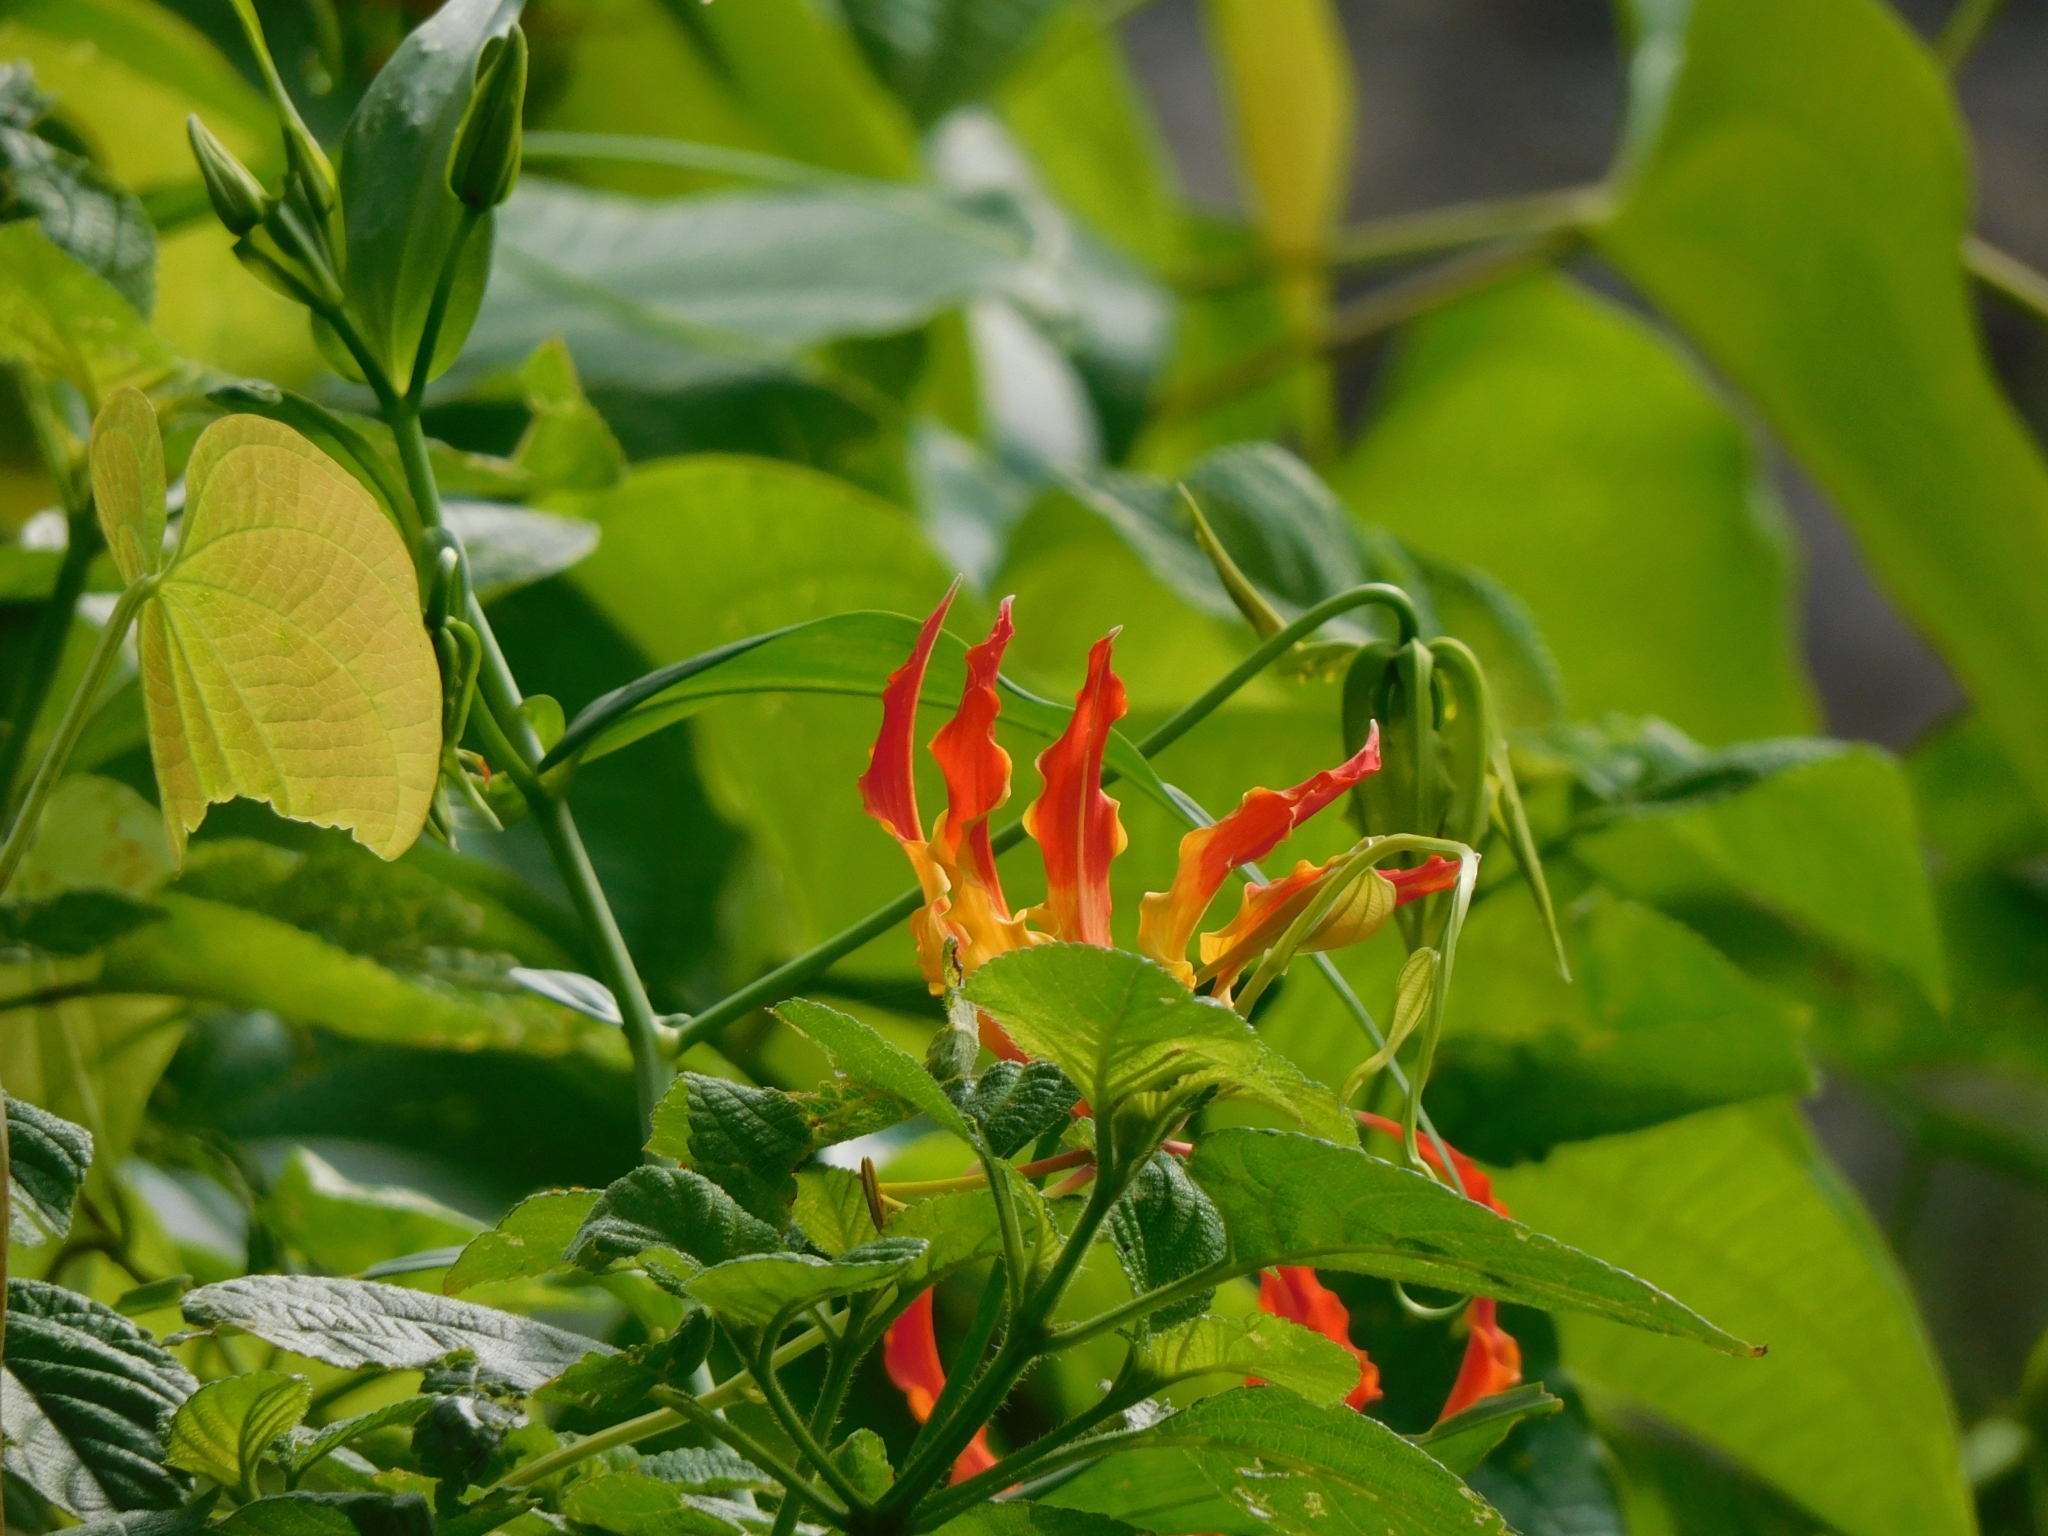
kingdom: Plantae
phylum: Tracheophyta
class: Liliopsida
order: Liliales
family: Colchicaceae
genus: Gloriosa
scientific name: Gloriosa superba
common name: Flame lily
